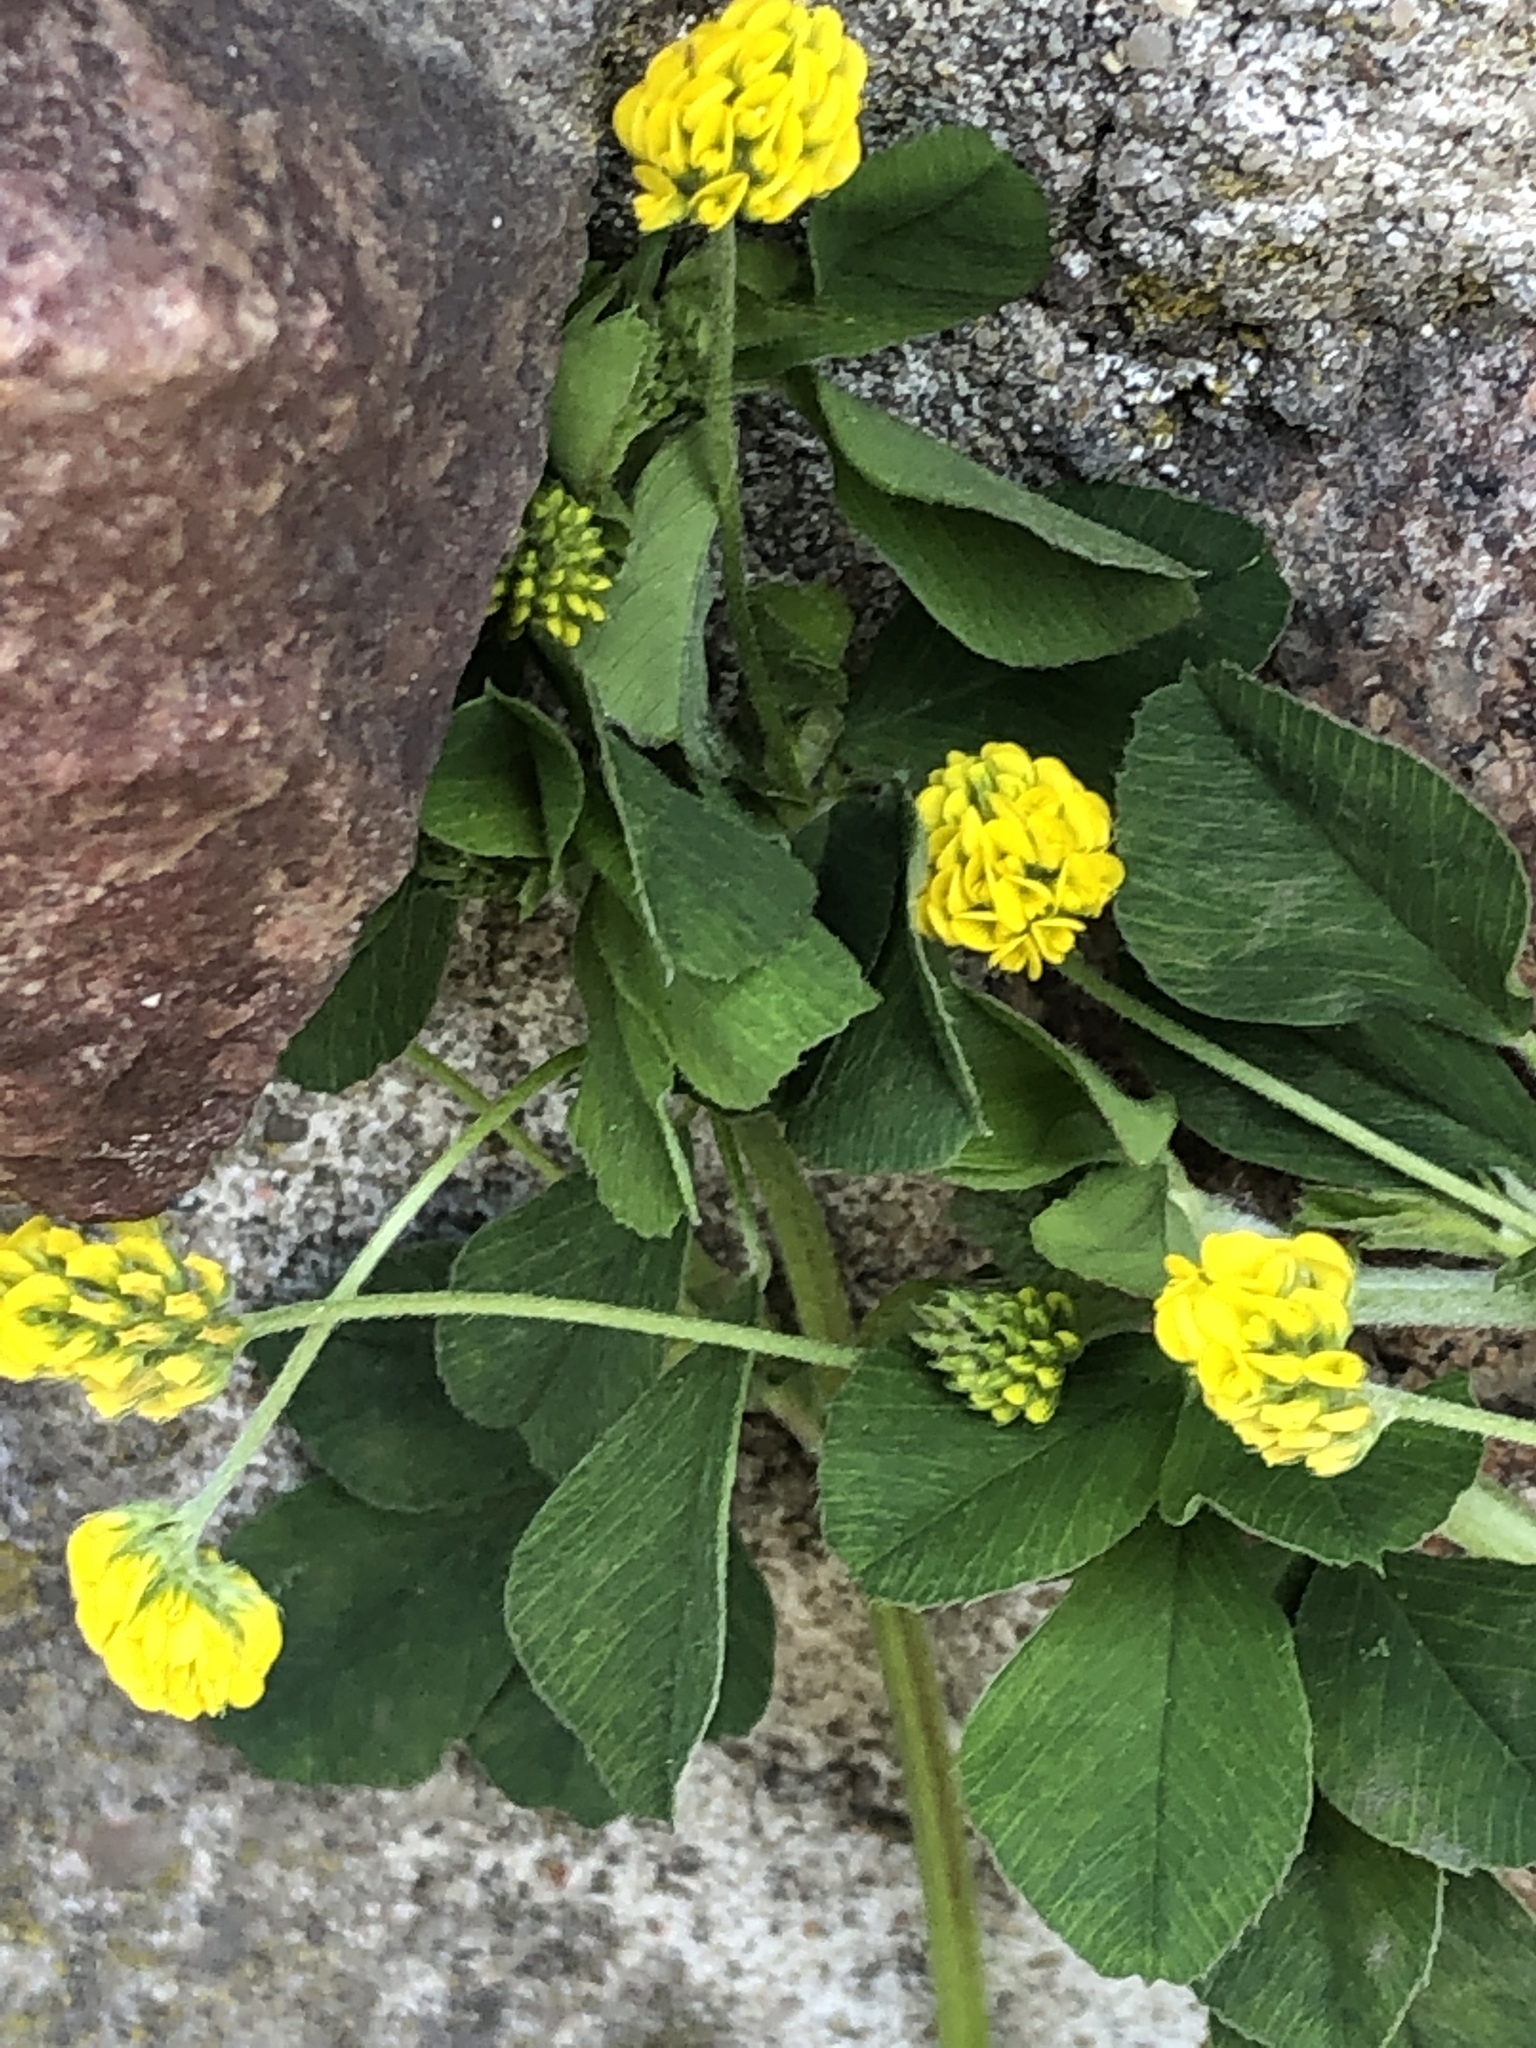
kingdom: Plantae
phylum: Tracheophyta
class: Magnoliopsida
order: Fabales
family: Fabaceae
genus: Medicago
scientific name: Medicago lupulina
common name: Black medick
